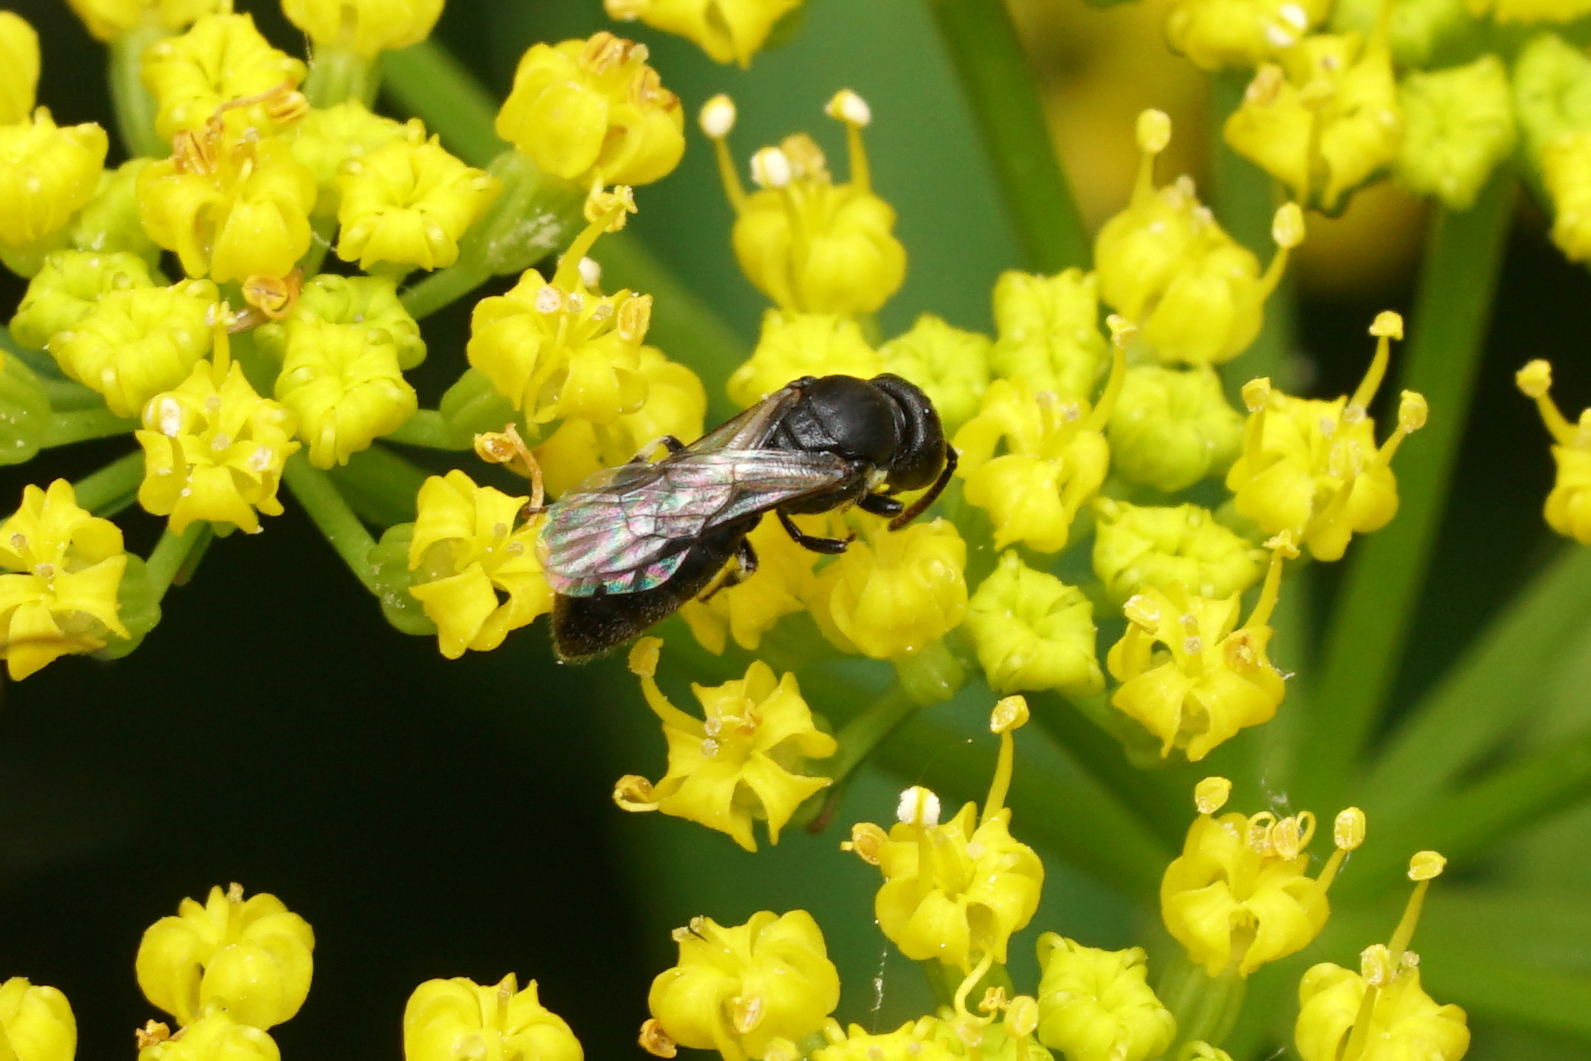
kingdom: Animalia
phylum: Arthropoda
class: Insecta
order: Hymenoptera
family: Colletidae
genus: Hylaeus
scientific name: Hylaeus mesillae
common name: Mesilla masked bee
